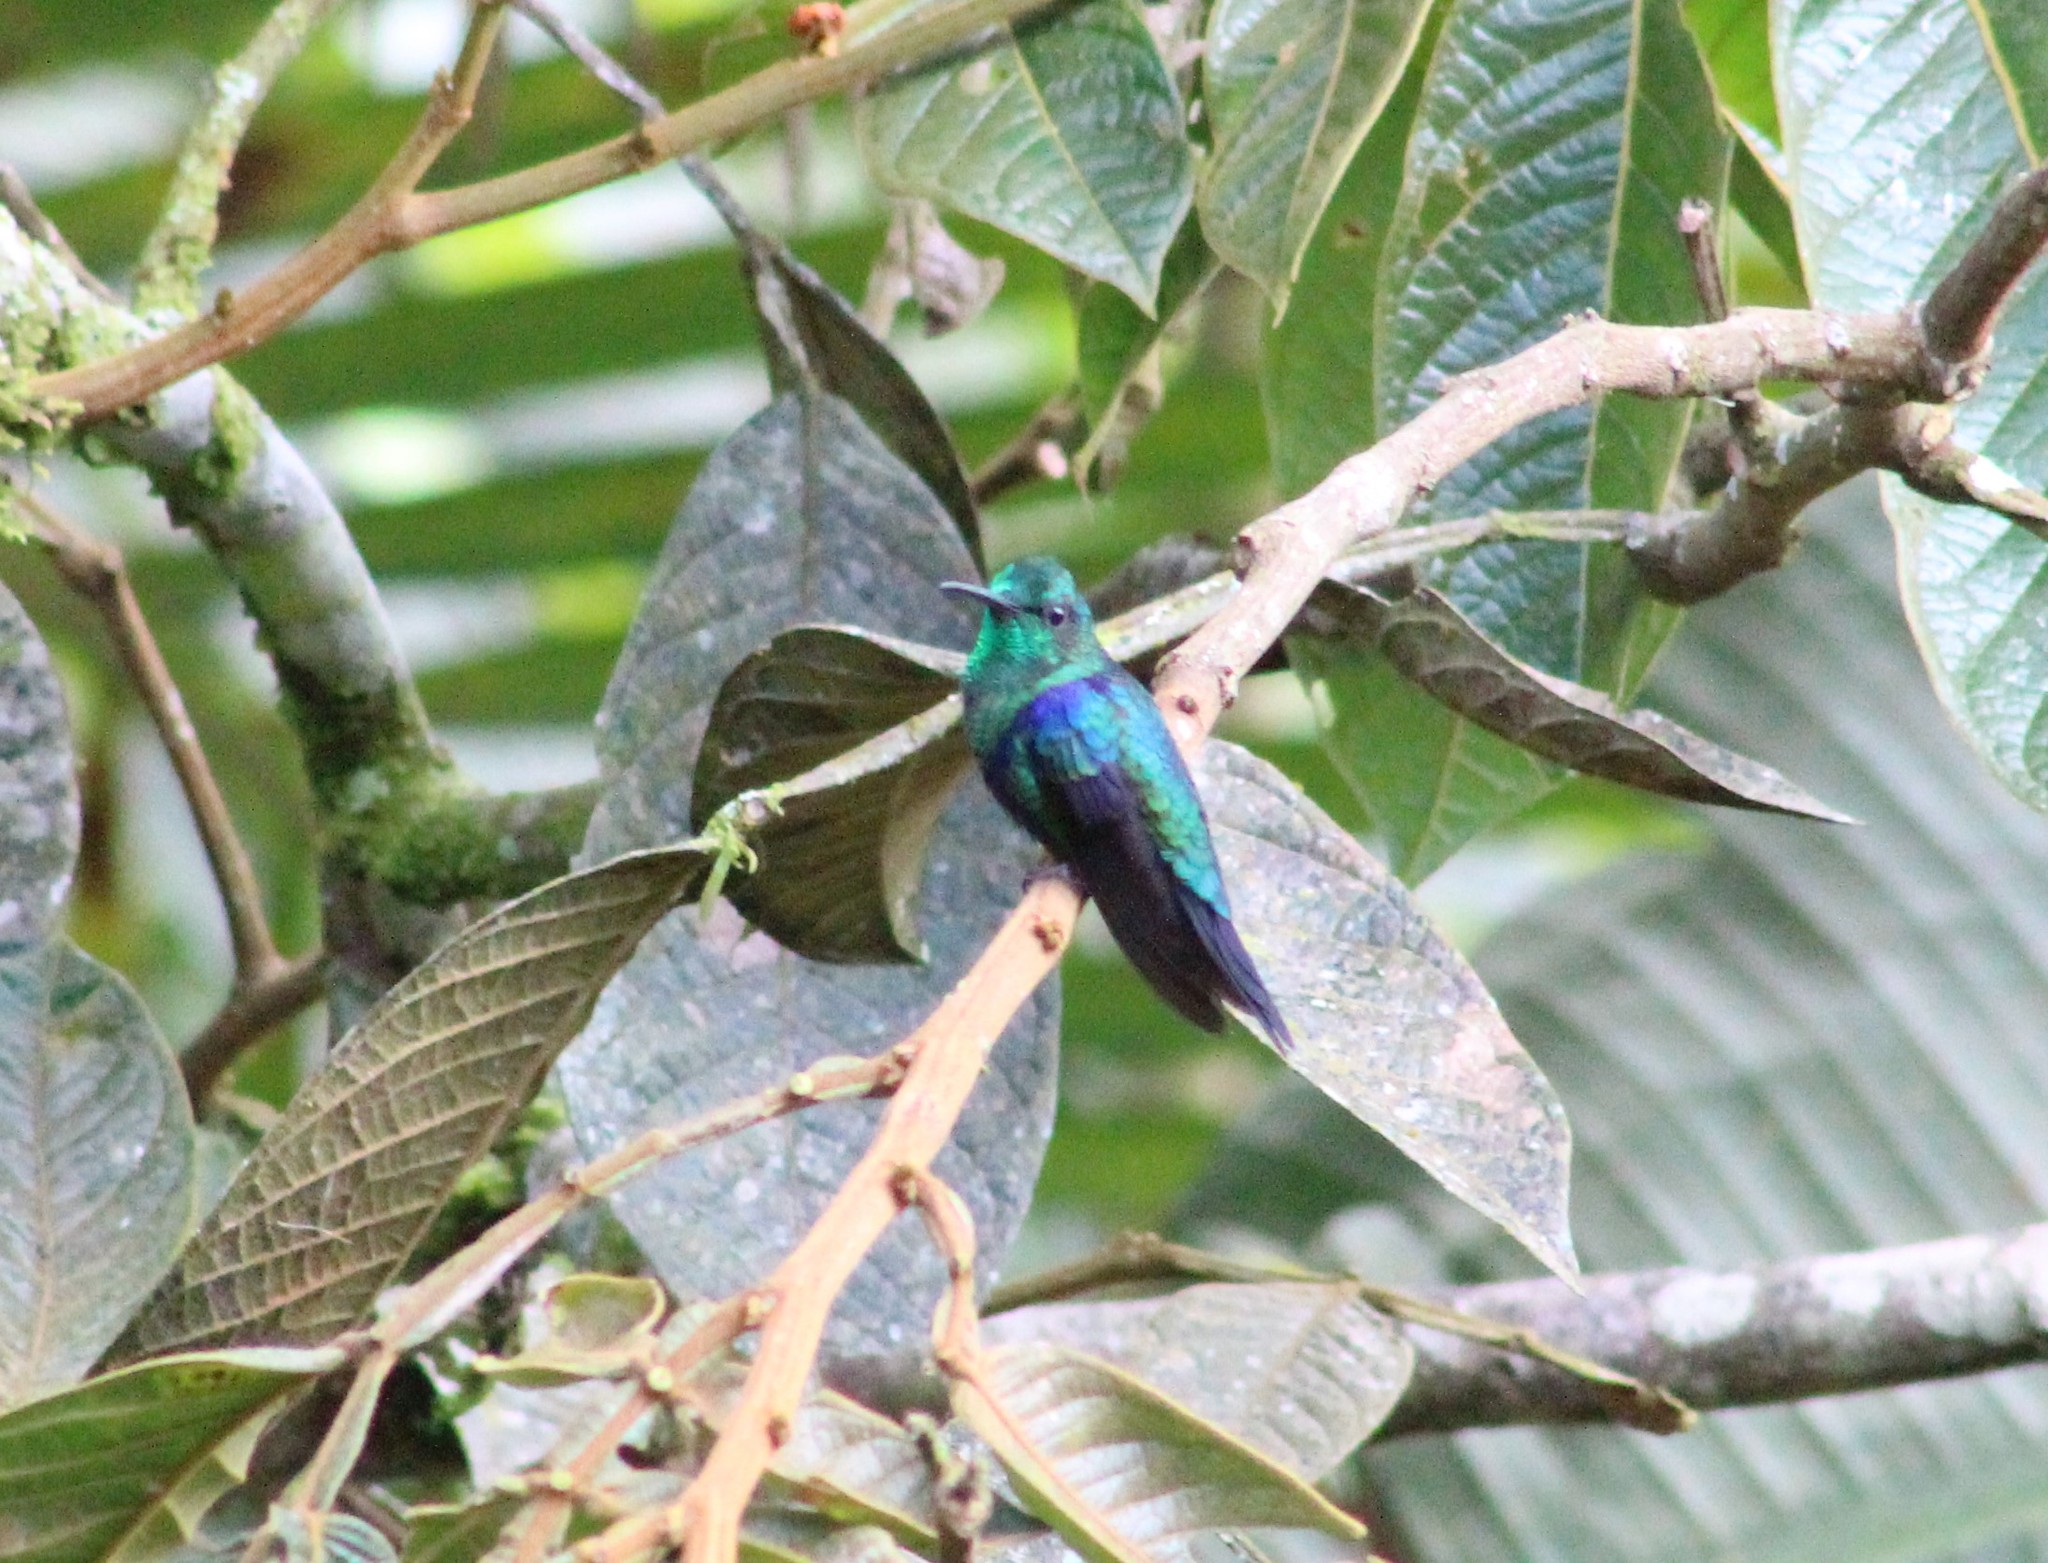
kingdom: Animalia
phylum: Chordata
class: Aves
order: Apodiformes
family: Trochilidae
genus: Thalurania
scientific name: Thalurania colombica
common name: Crowned woodnymph
